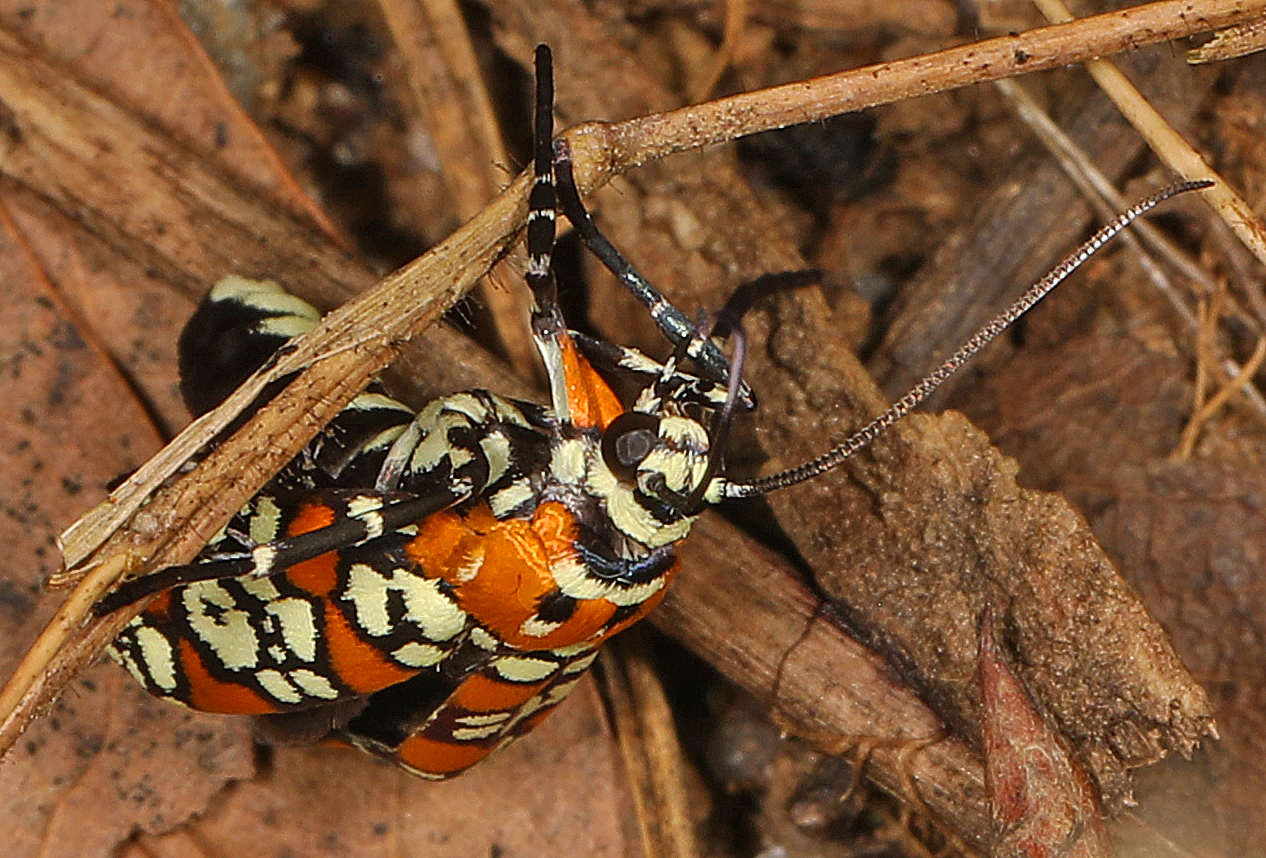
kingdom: Animalia
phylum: Arthropoda
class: Insecta
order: Lepidoptera
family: Attevidae
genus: Atteva
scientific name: Atteva punctella
